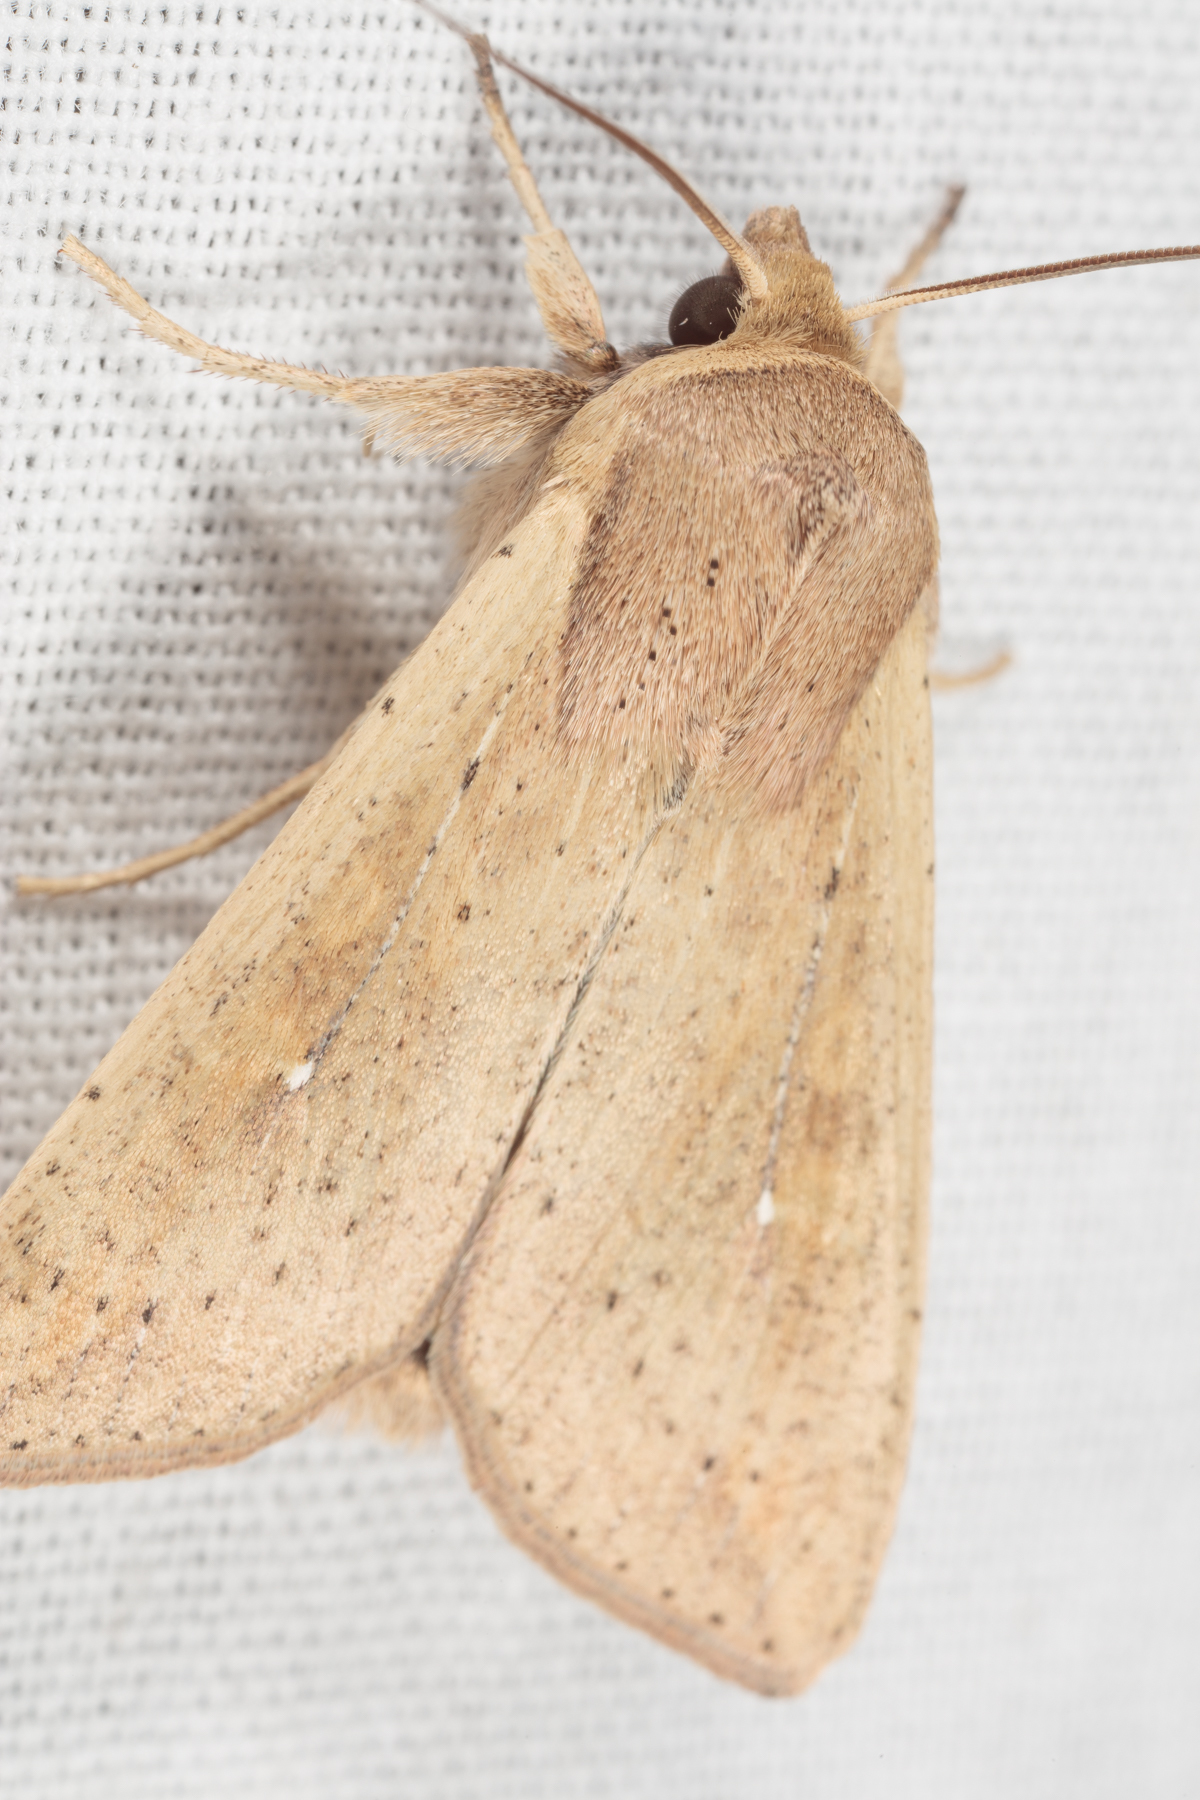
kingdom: Animalia
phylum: Arthropoda
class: Insecta
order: Lepidoptera
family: Noctuidae
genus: Mythimna
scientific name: Mythimna unipuncta
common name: White-speck
